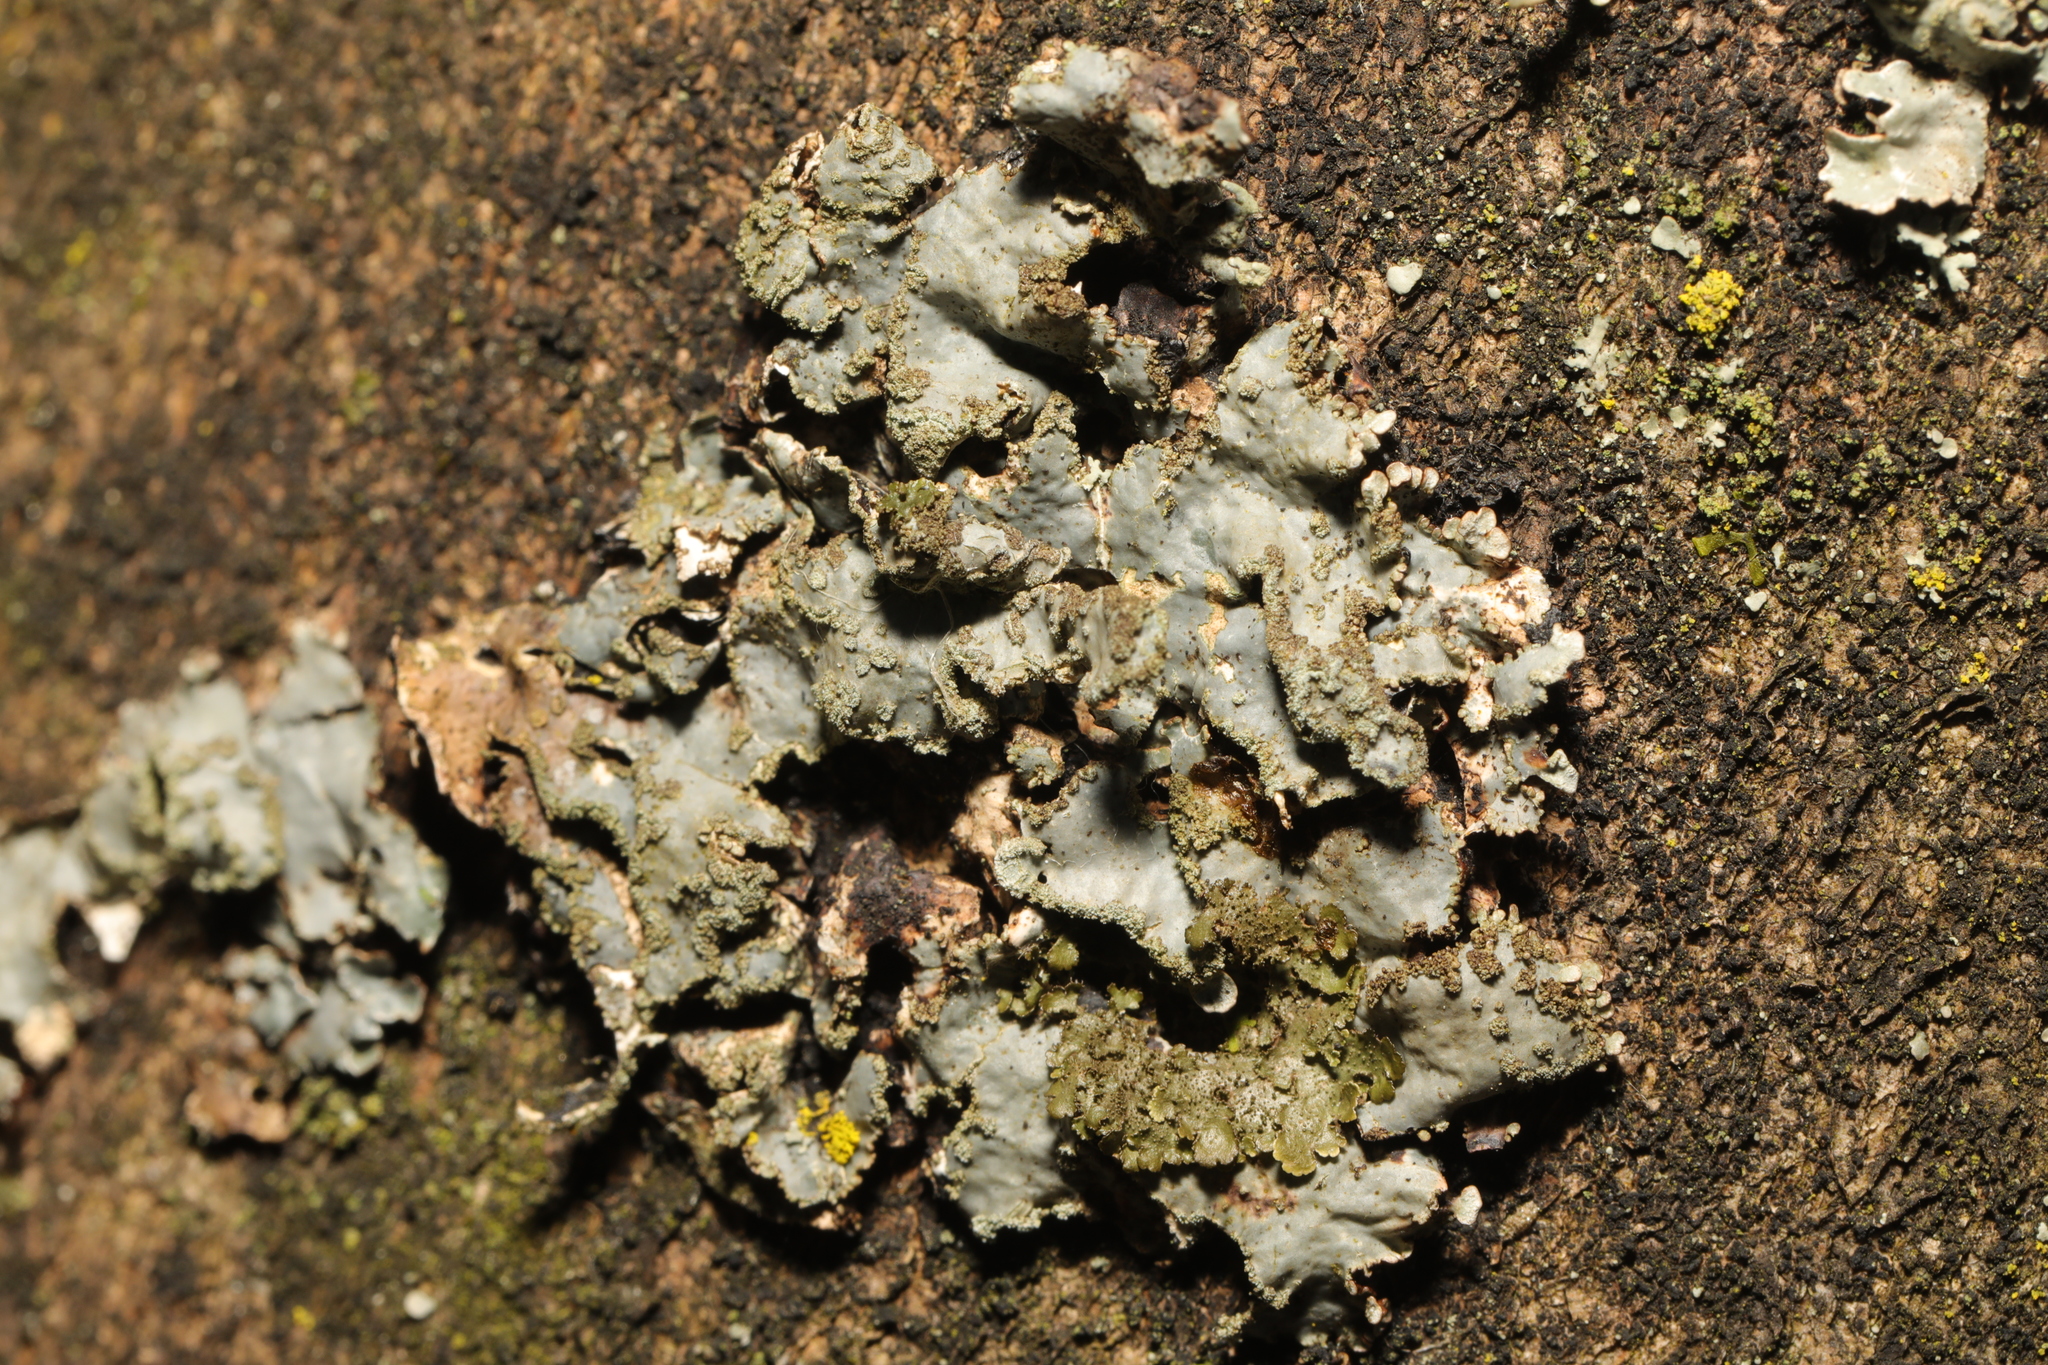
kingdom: Fungi
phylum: Ascomycota
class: Lecanoromycetes
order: Lecanorales
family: Parmeliaceae
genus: Parmelia
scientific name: Parmelia sulcata
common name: Netted shield lichen
